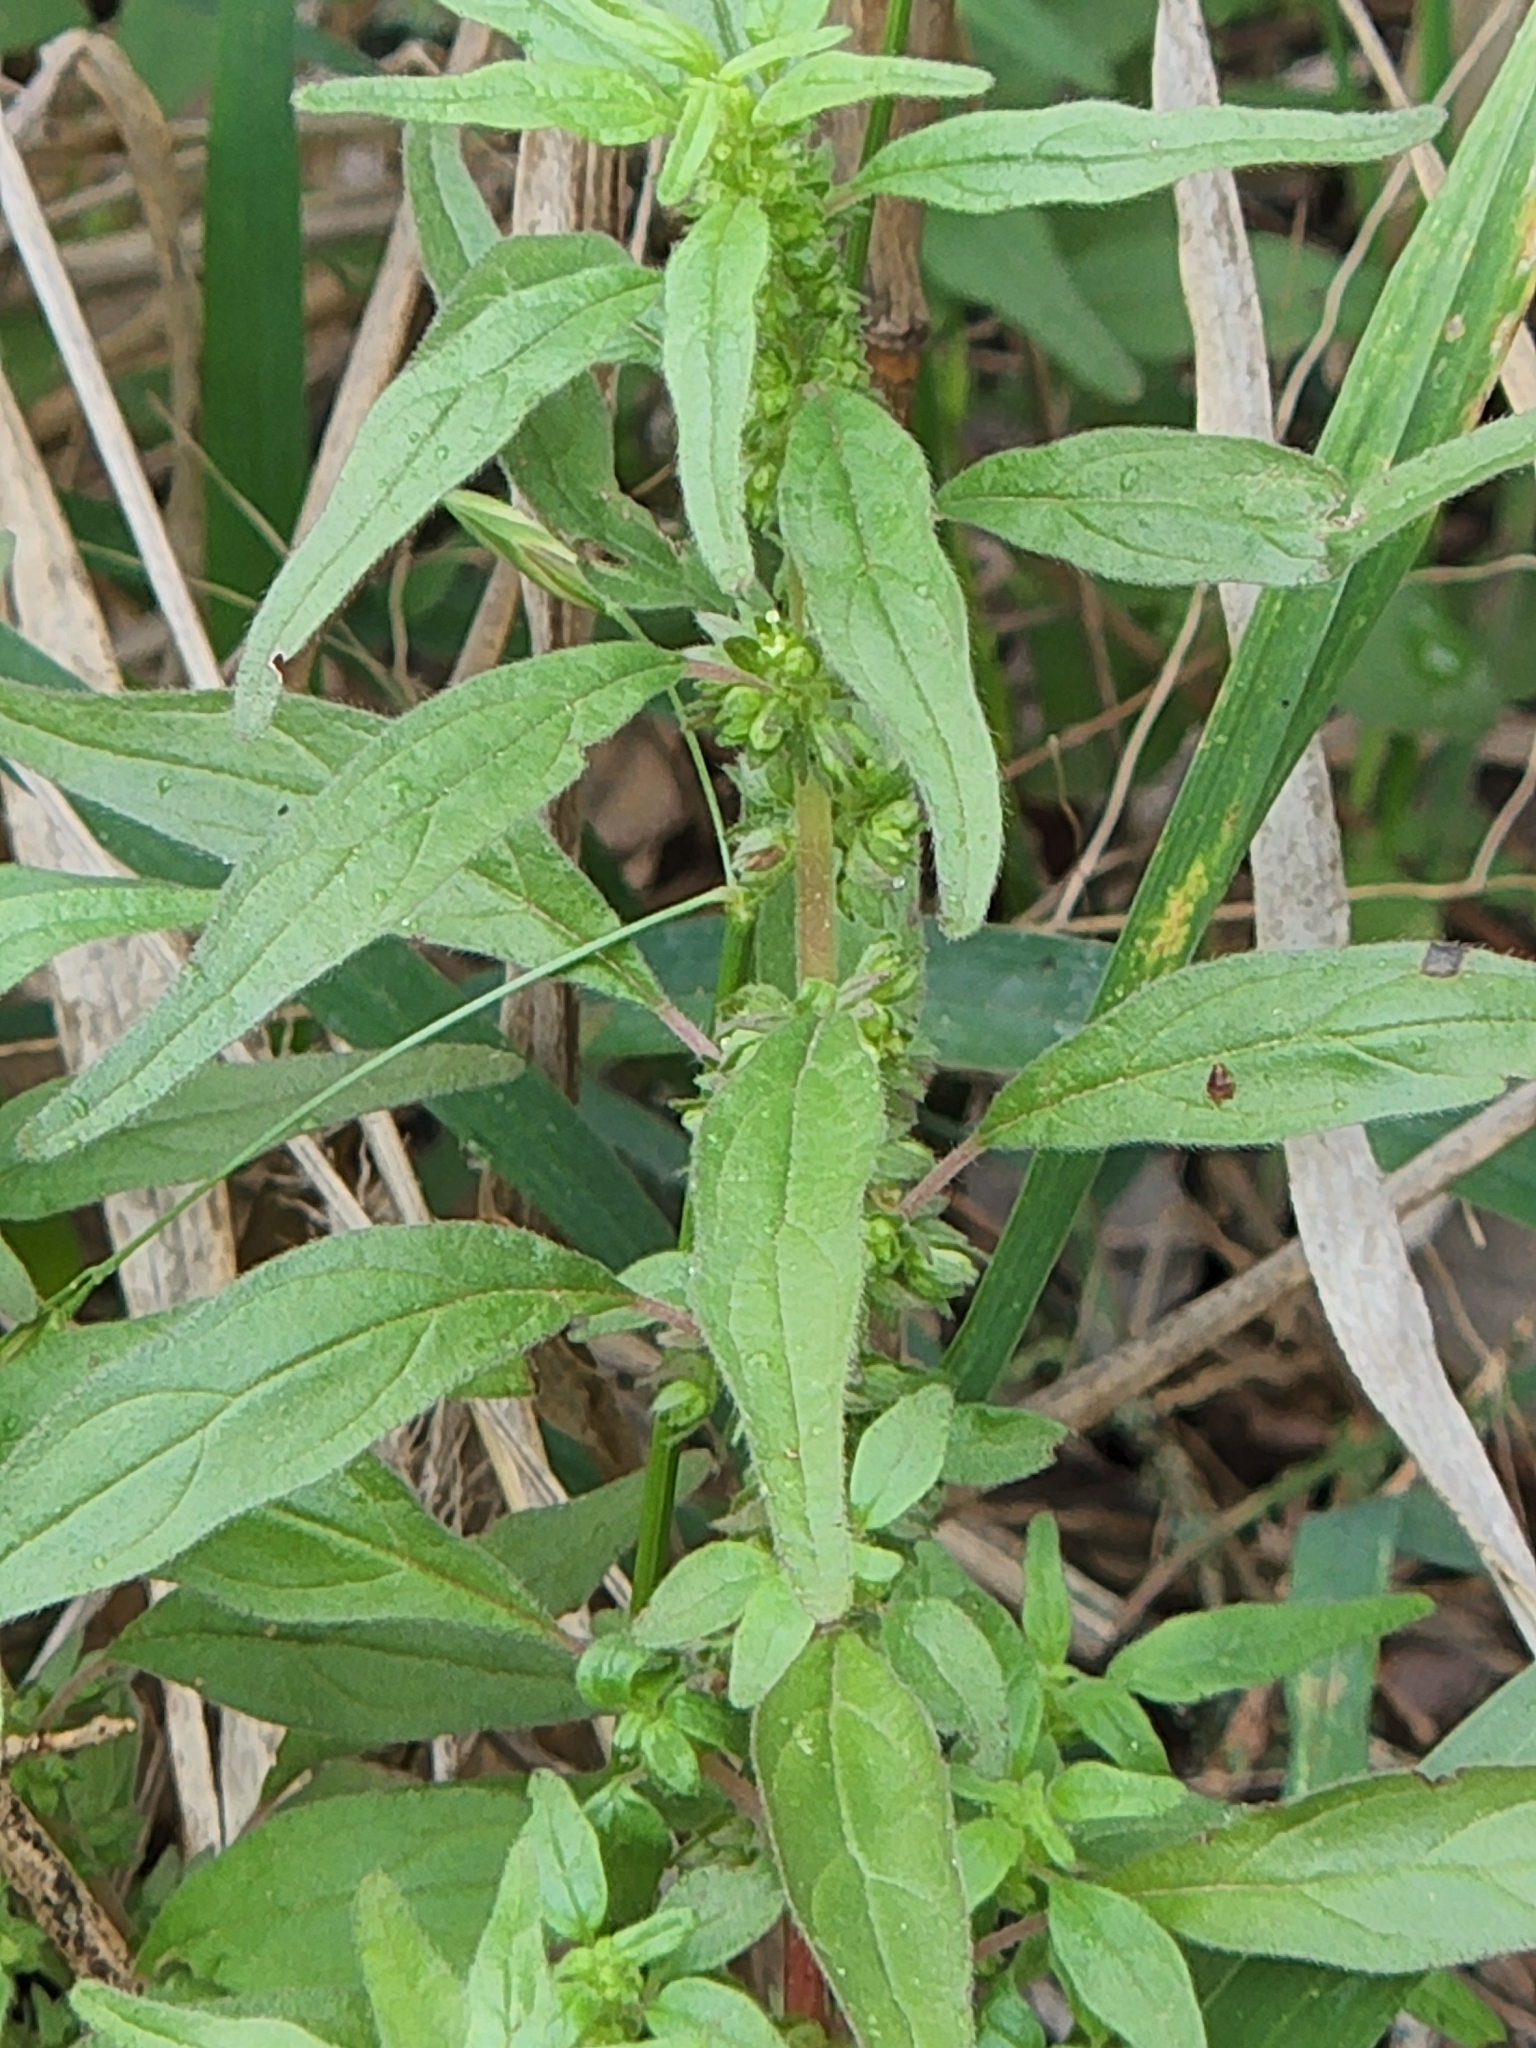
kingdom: Plantae
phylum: Tracheophyta
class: Magnoliopsida
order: Rosales
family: Urticaceae
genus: Parietaria
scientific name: Parietaria pensylvanica
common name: Pennsylvania pellitory
